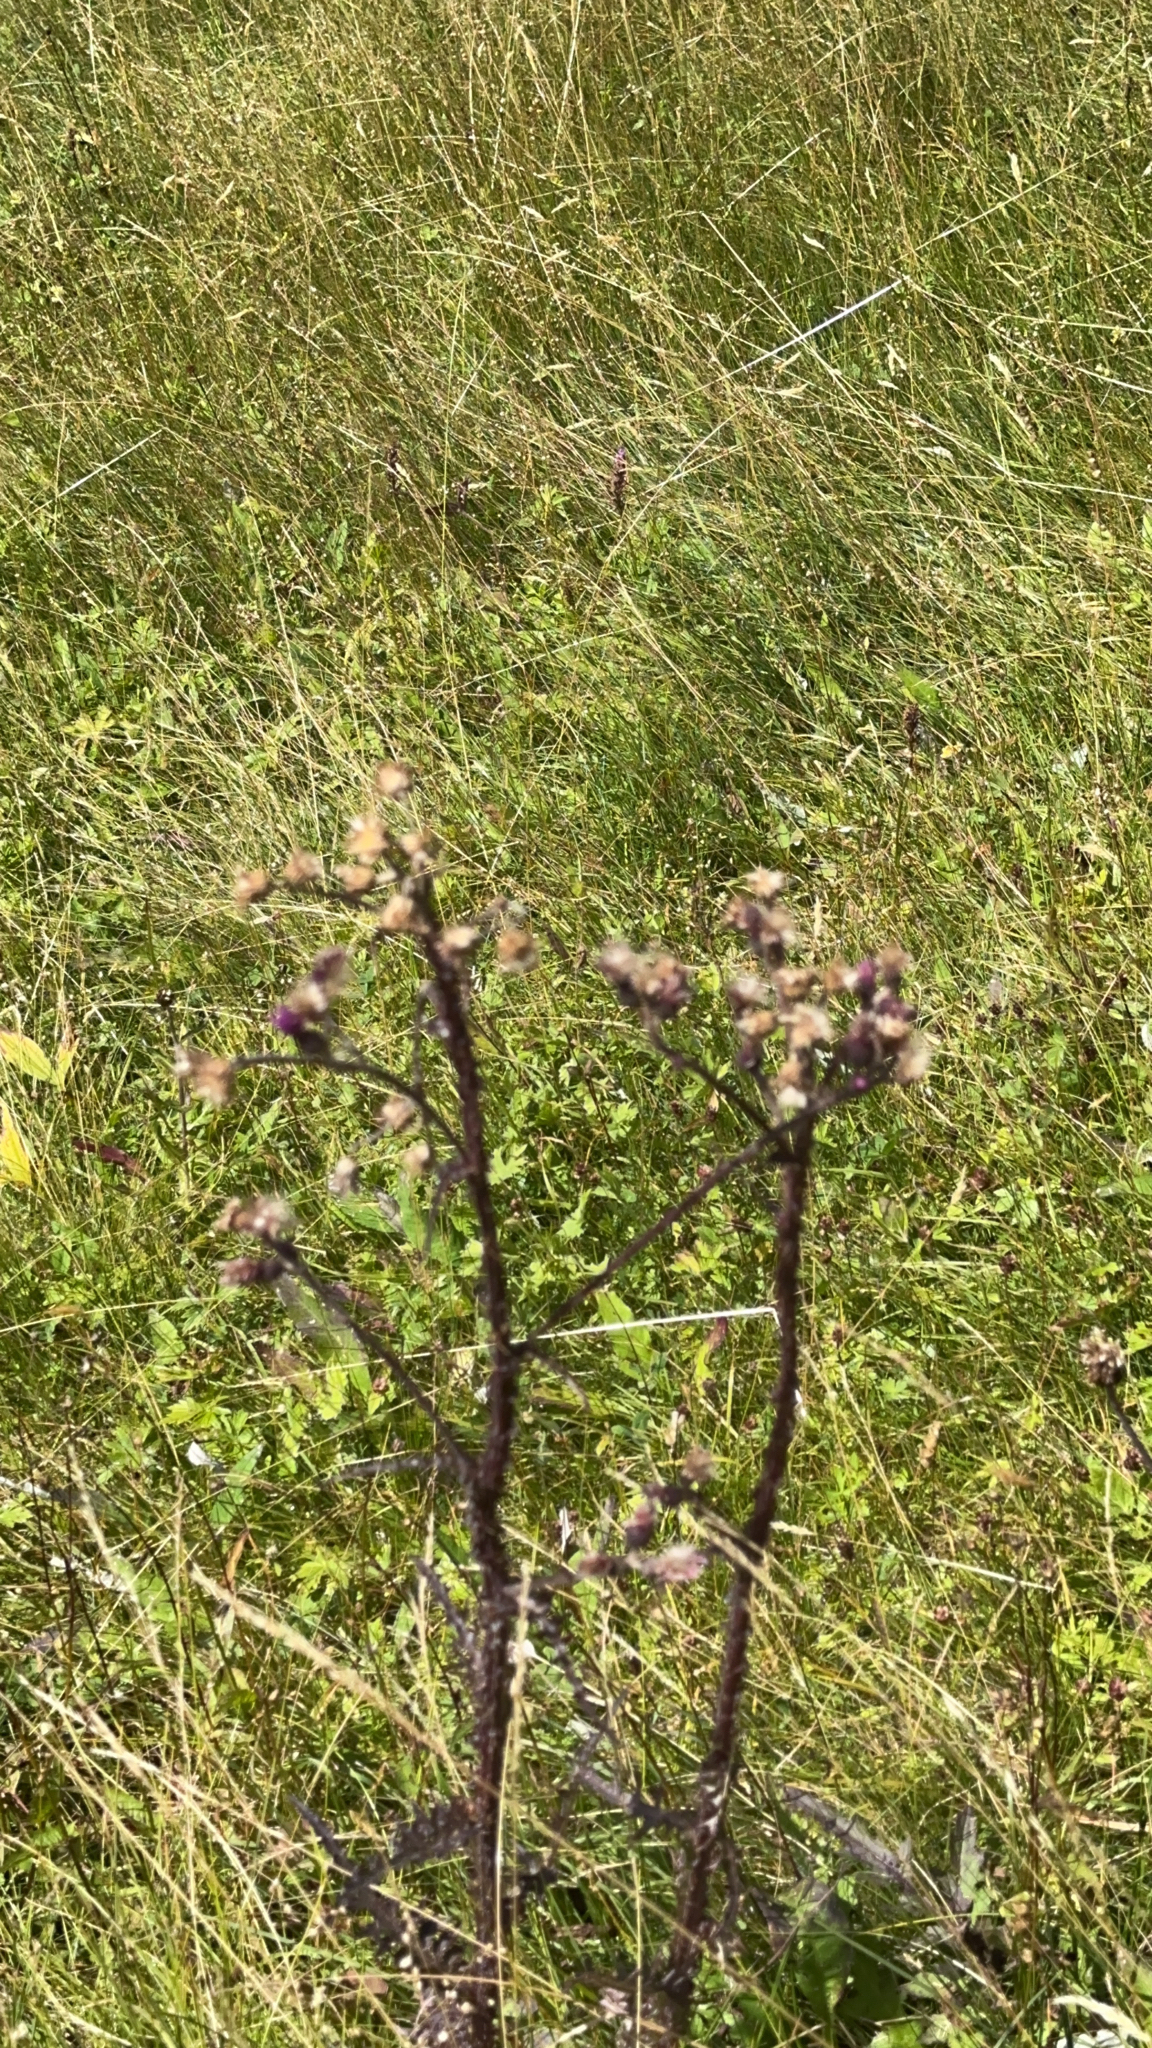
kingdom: Plantae
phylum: Tracheophyta
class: Magnoliopsida
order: Asterales
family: Asteraceae
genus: Cirsium
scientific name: Cirsium palustre
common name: Marsh thistle
